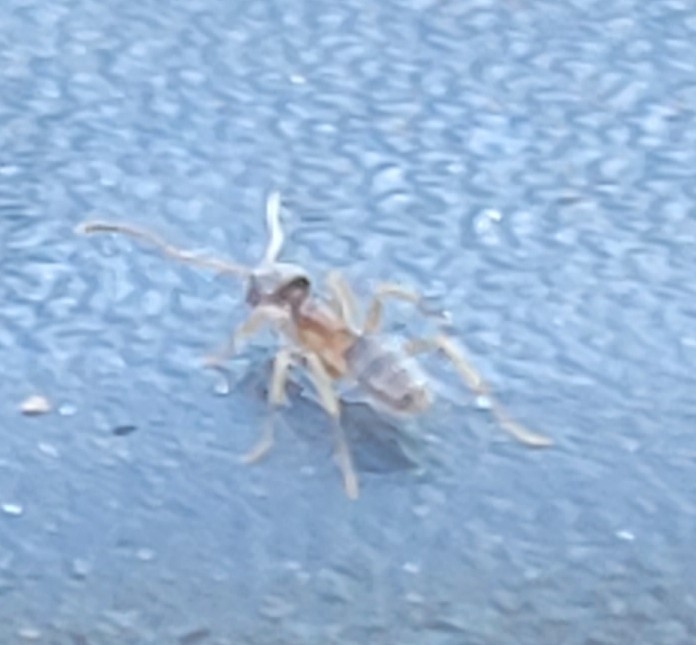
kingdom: Animalia
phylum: Arthropoda
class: Insecta
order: Hymenoptera
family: Formicidae
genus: Tapinoma
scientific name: Tapinoma sessile
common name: Odorous house ant
